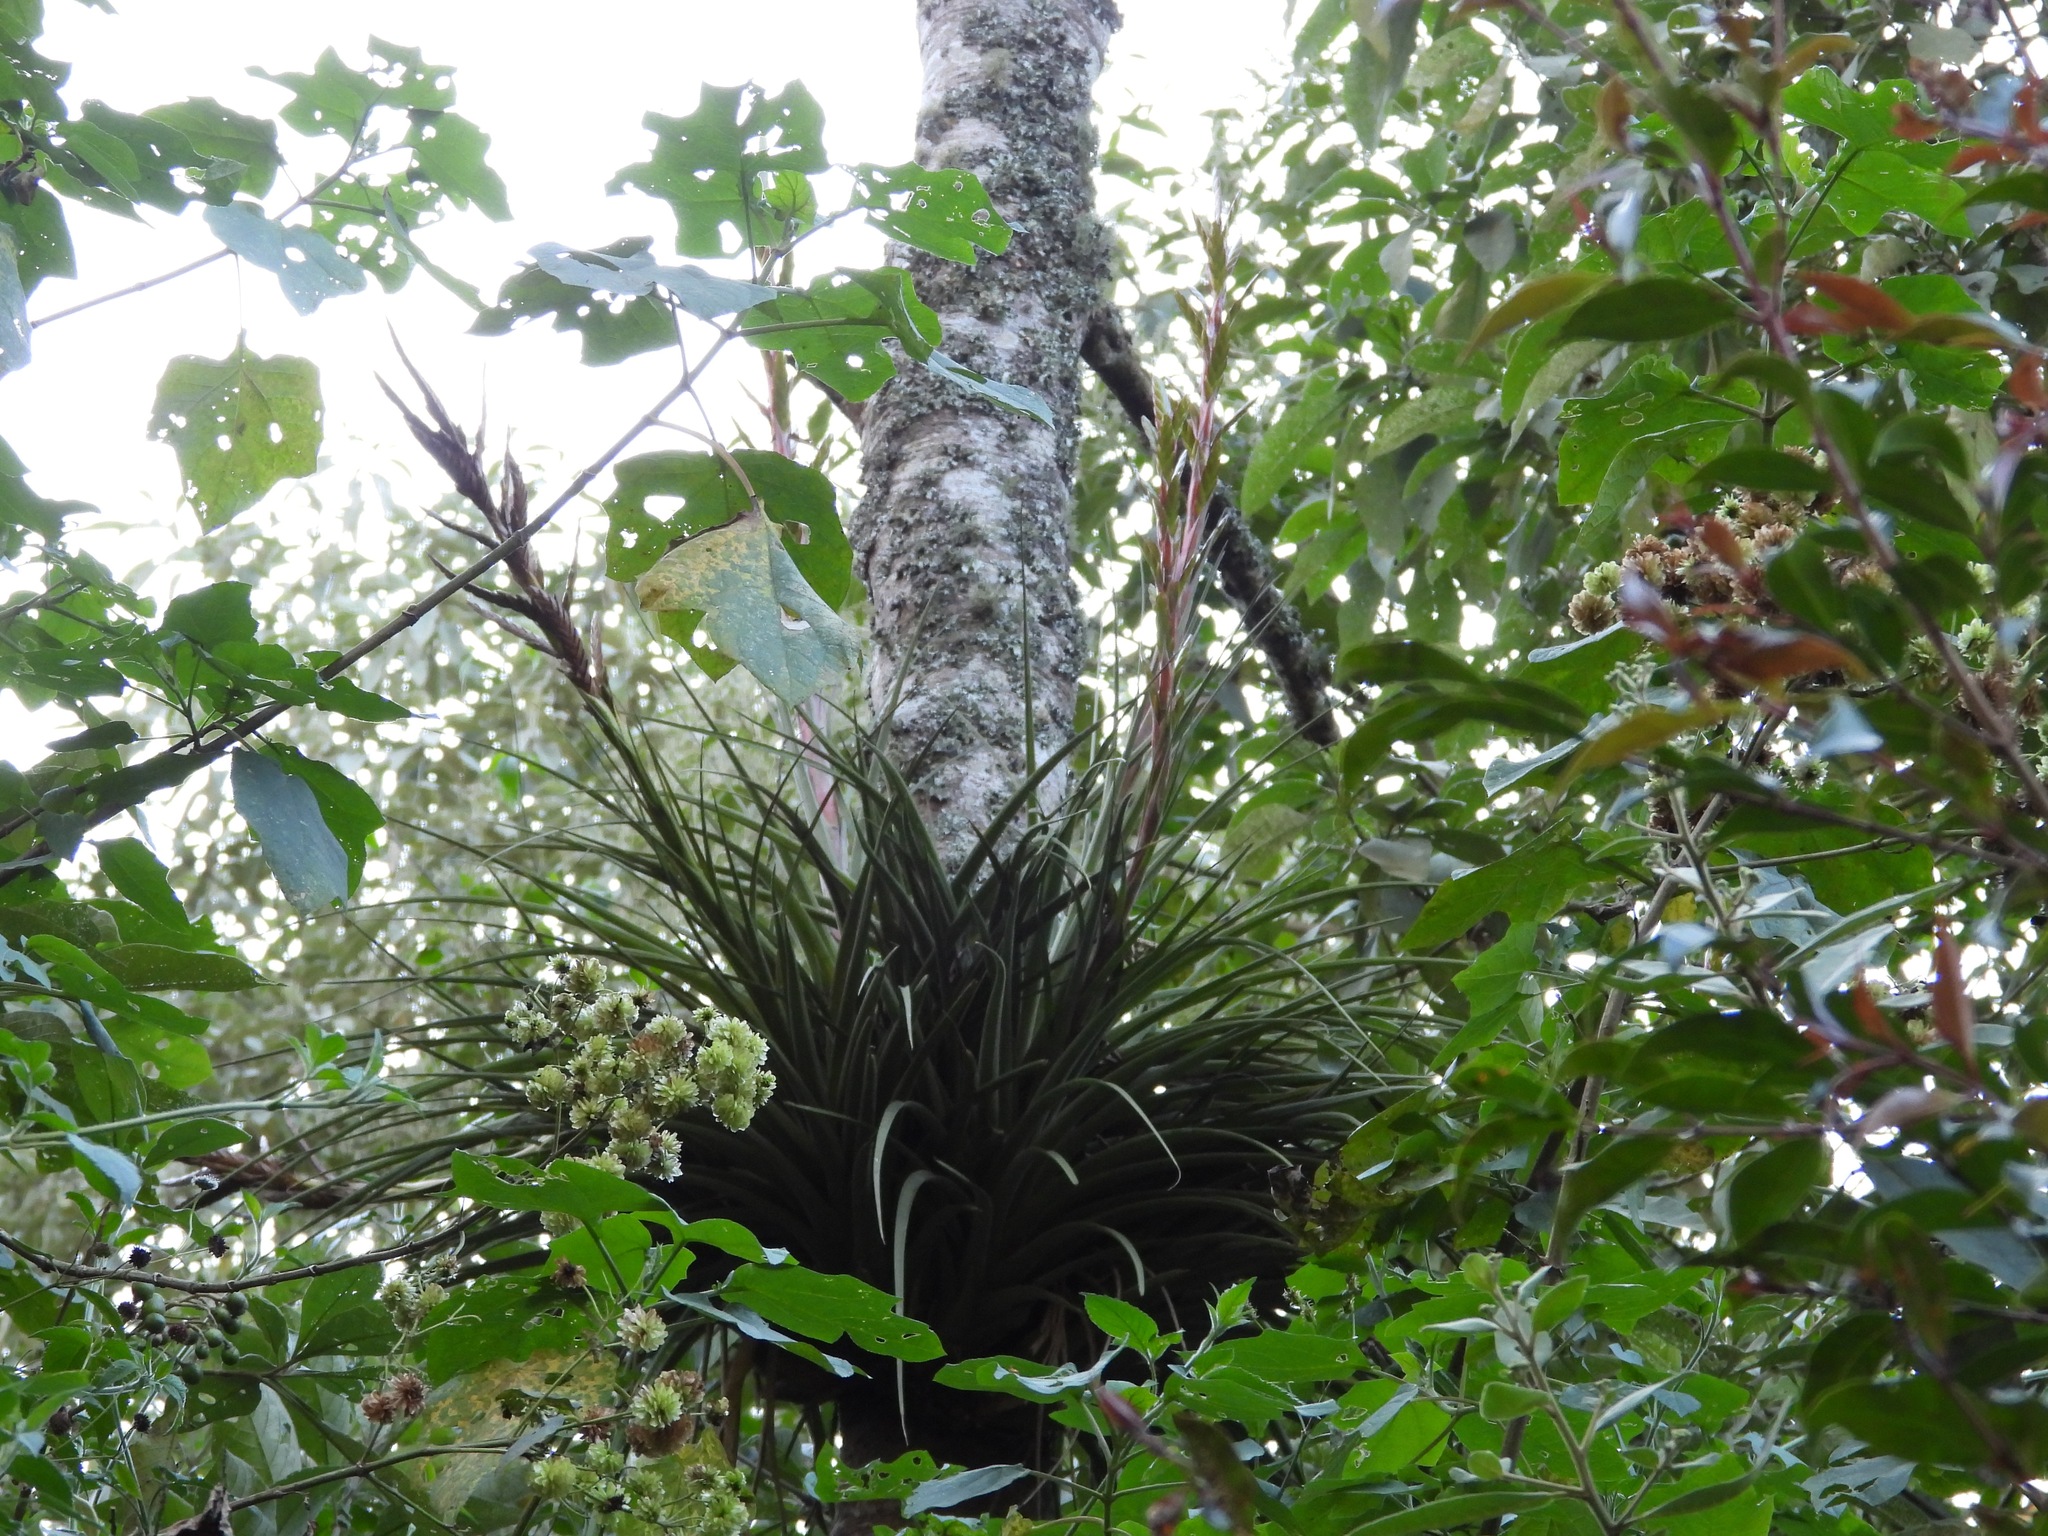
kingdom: Plantae
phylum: Tracheophyta
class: Liliopsida
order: Poales
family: Bromeliaceae
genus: Tillandsia
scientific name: Tillandsia rodrigueziana
